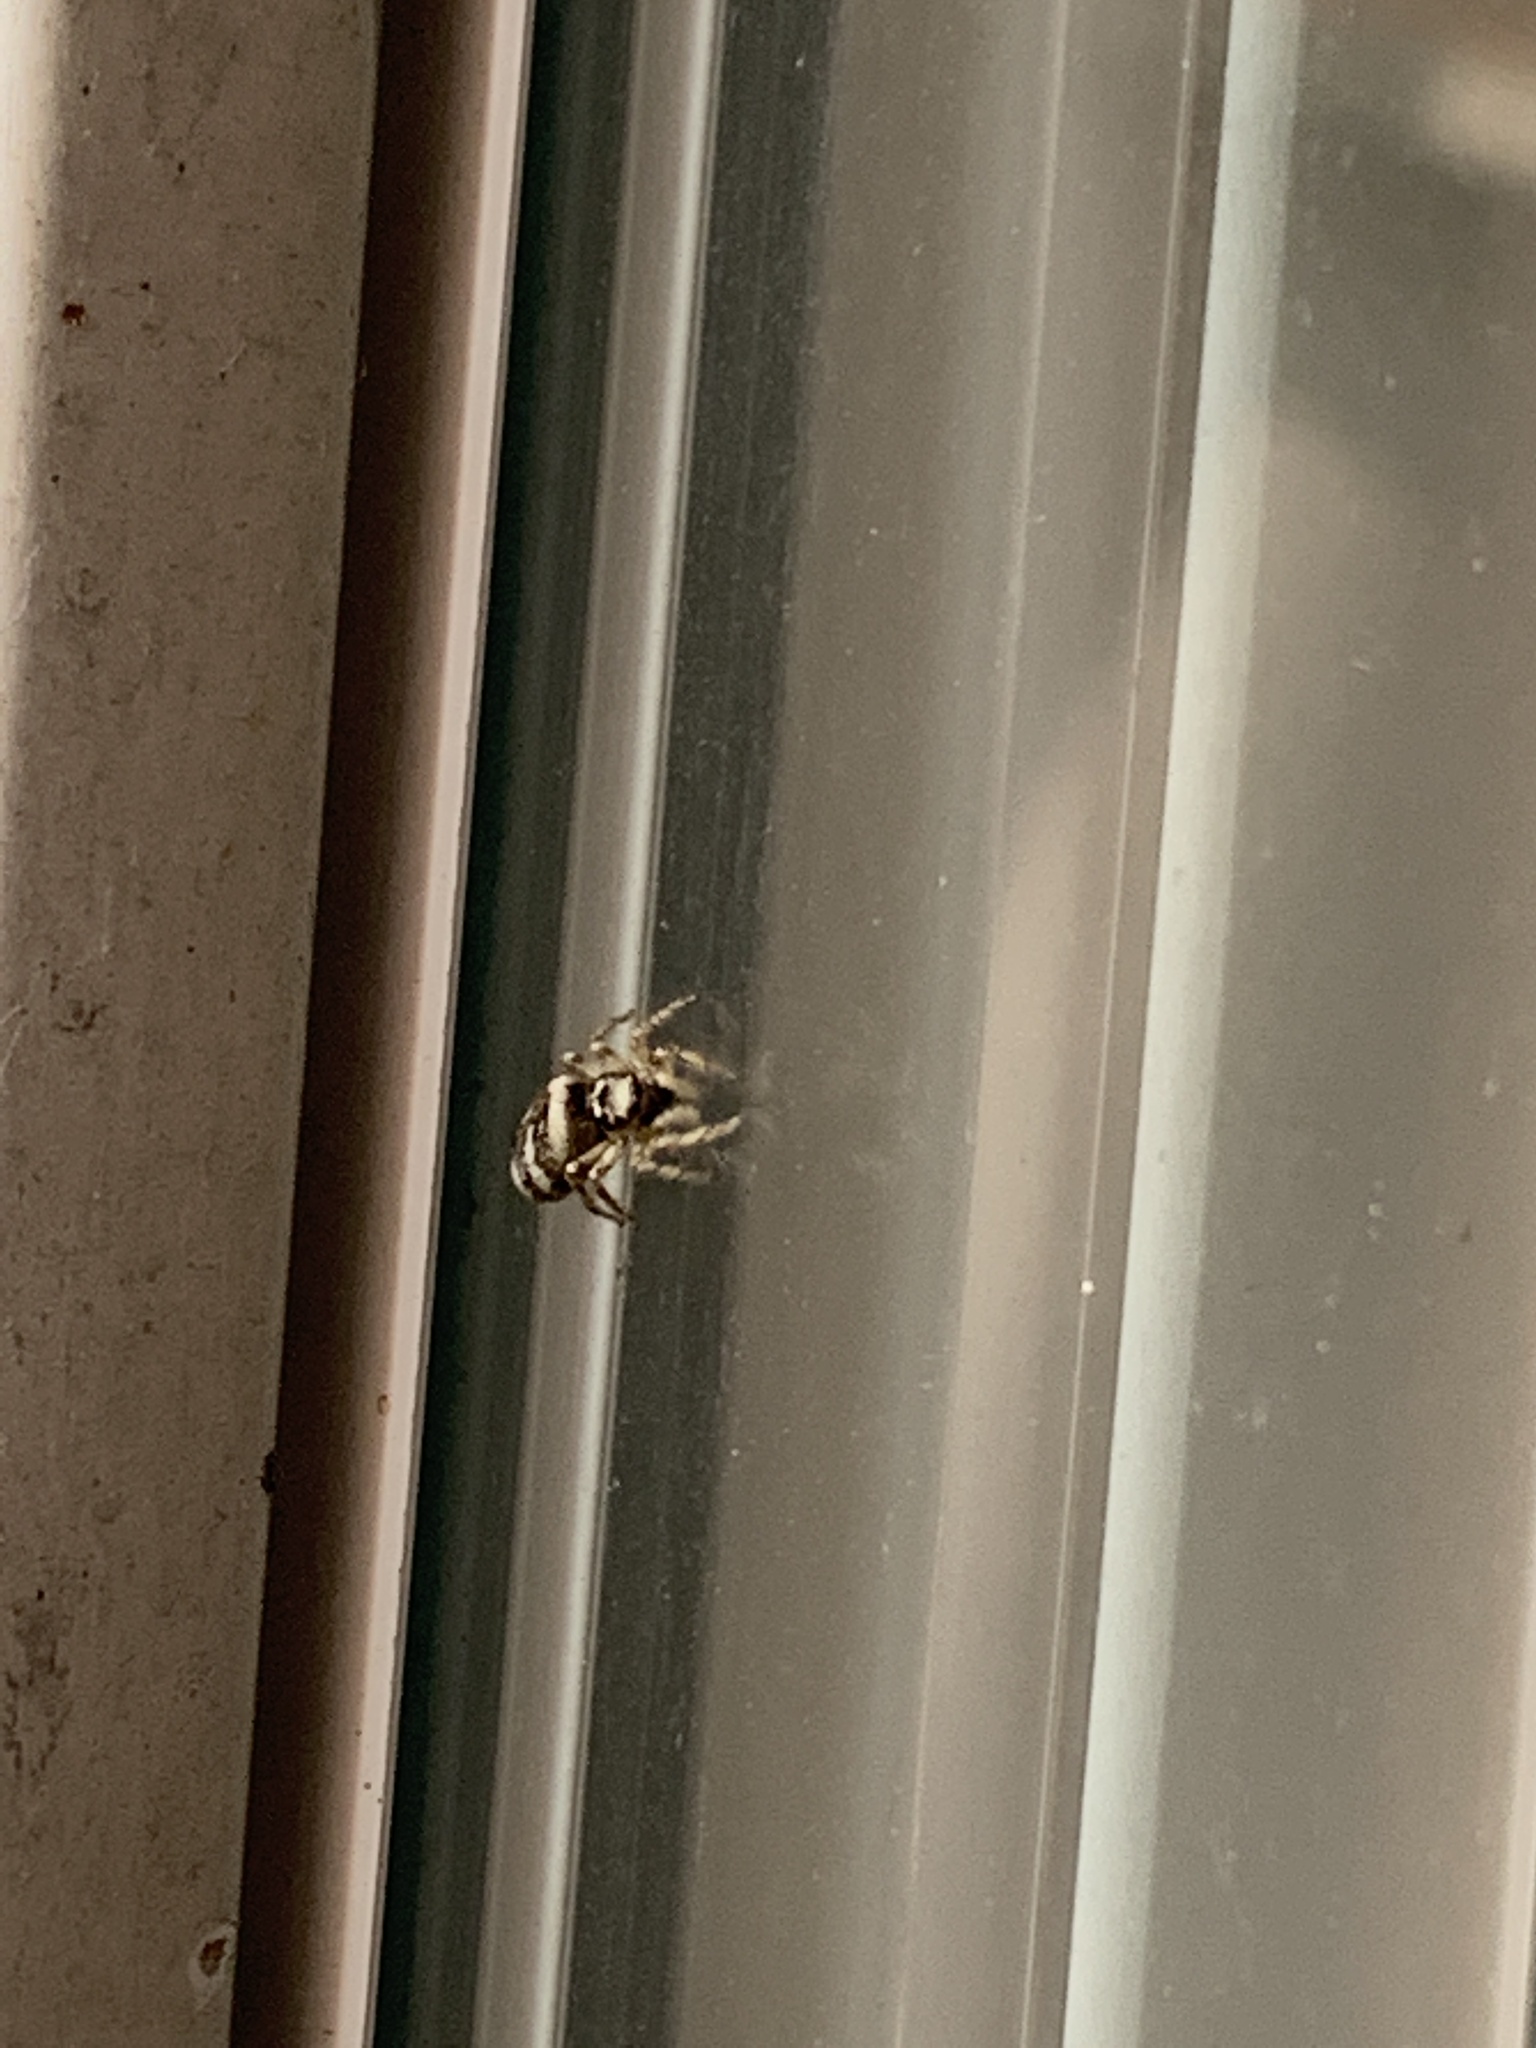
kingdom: Animalia
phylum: Arthropoda
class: Arachnida
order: Araneae
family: Salticidae
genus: Salticus
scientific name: Salticus scenicus
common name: Zebra jumper
